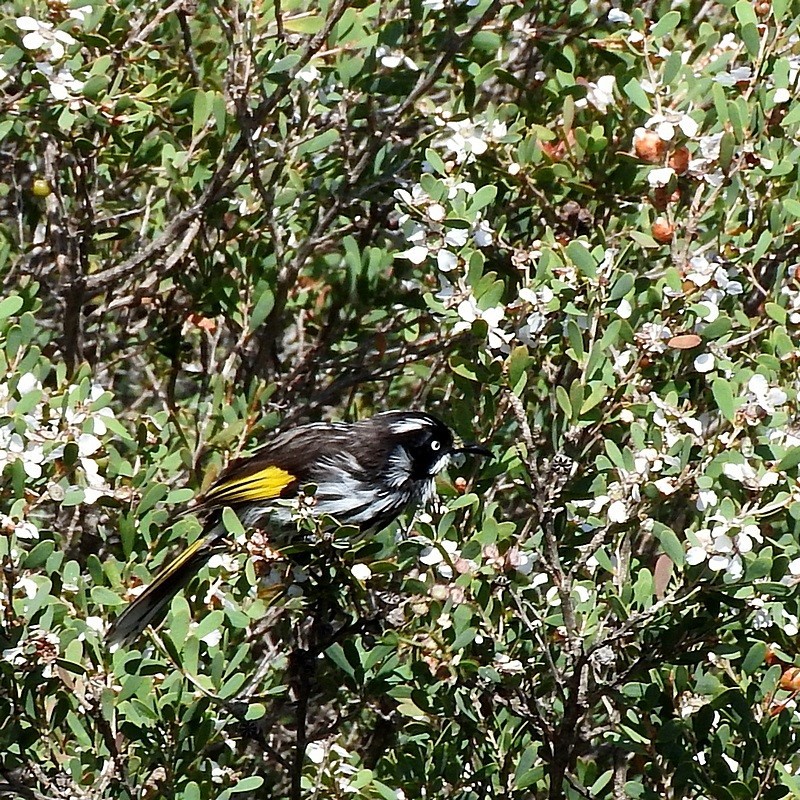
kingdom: Animalia
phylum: Chordata
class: Aves
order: Passeriformes
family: Meliphagidae
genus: Phylidonyris
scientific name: Phylidonyris novaehollandiae
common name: New holland honeyeater
